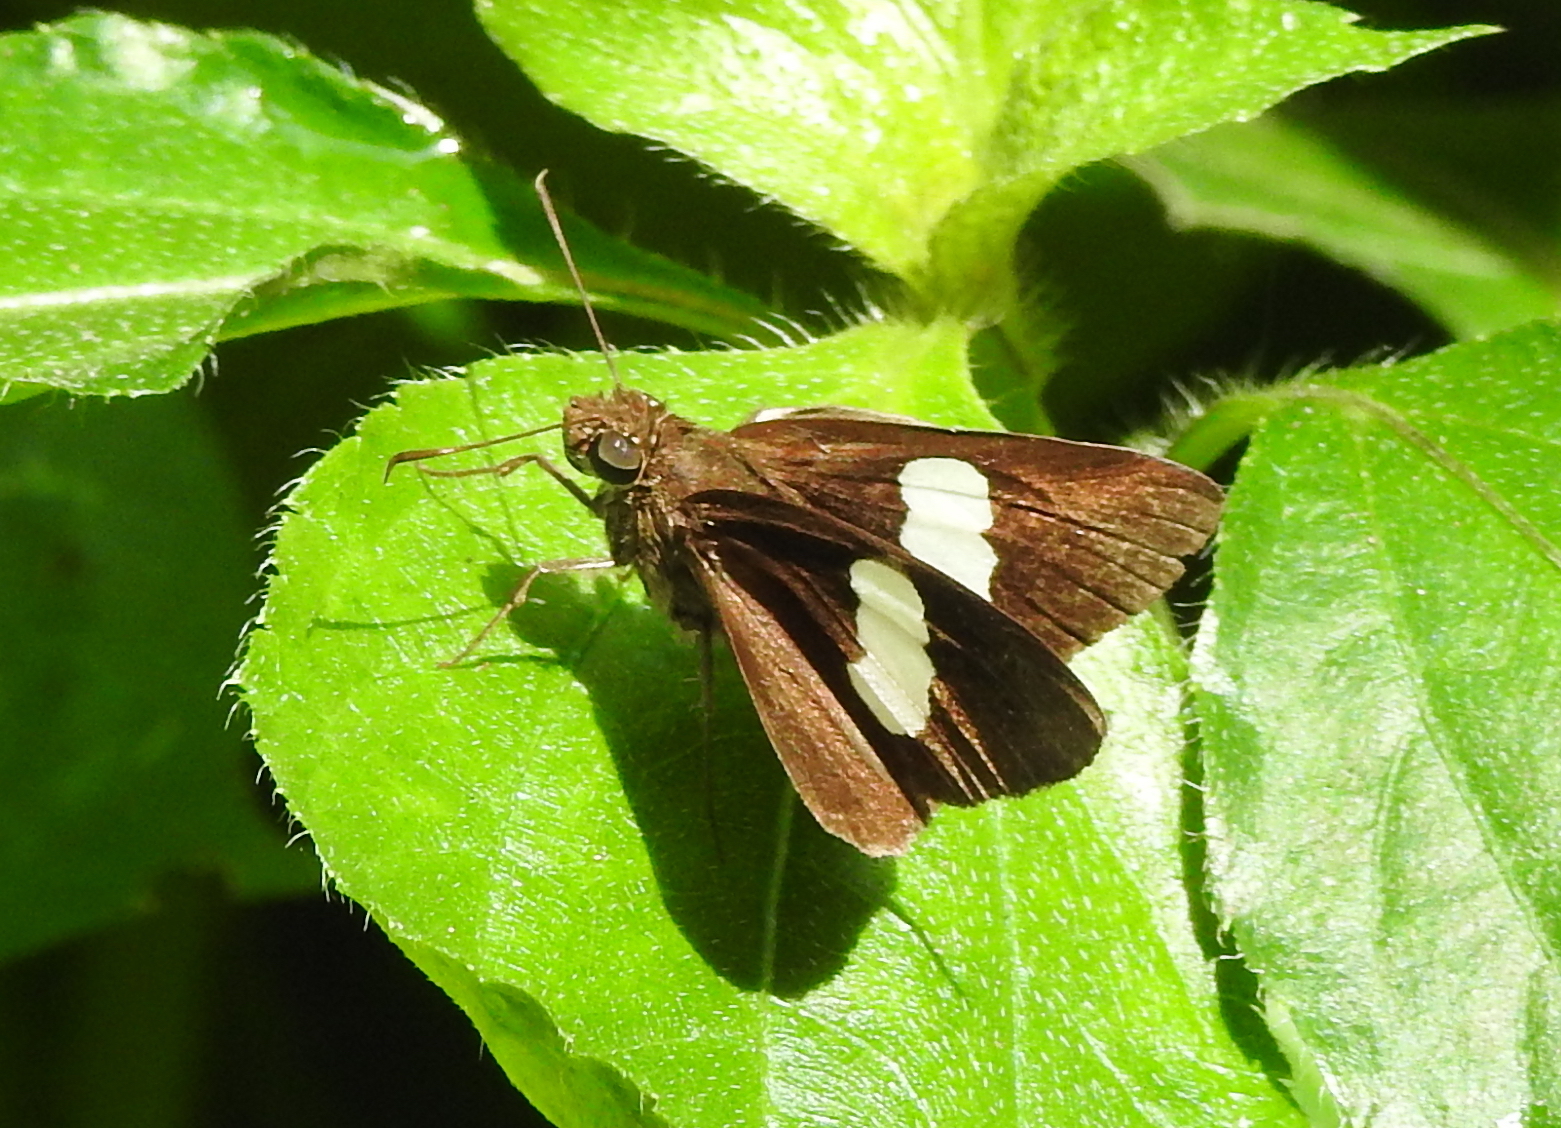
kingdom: Animalia
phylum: Arthropoda
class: Insecta
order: Lepidoptera
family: Hesperiidae
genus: Notocrypta
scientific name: Notocrypta paralysos
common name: Common banded demon
